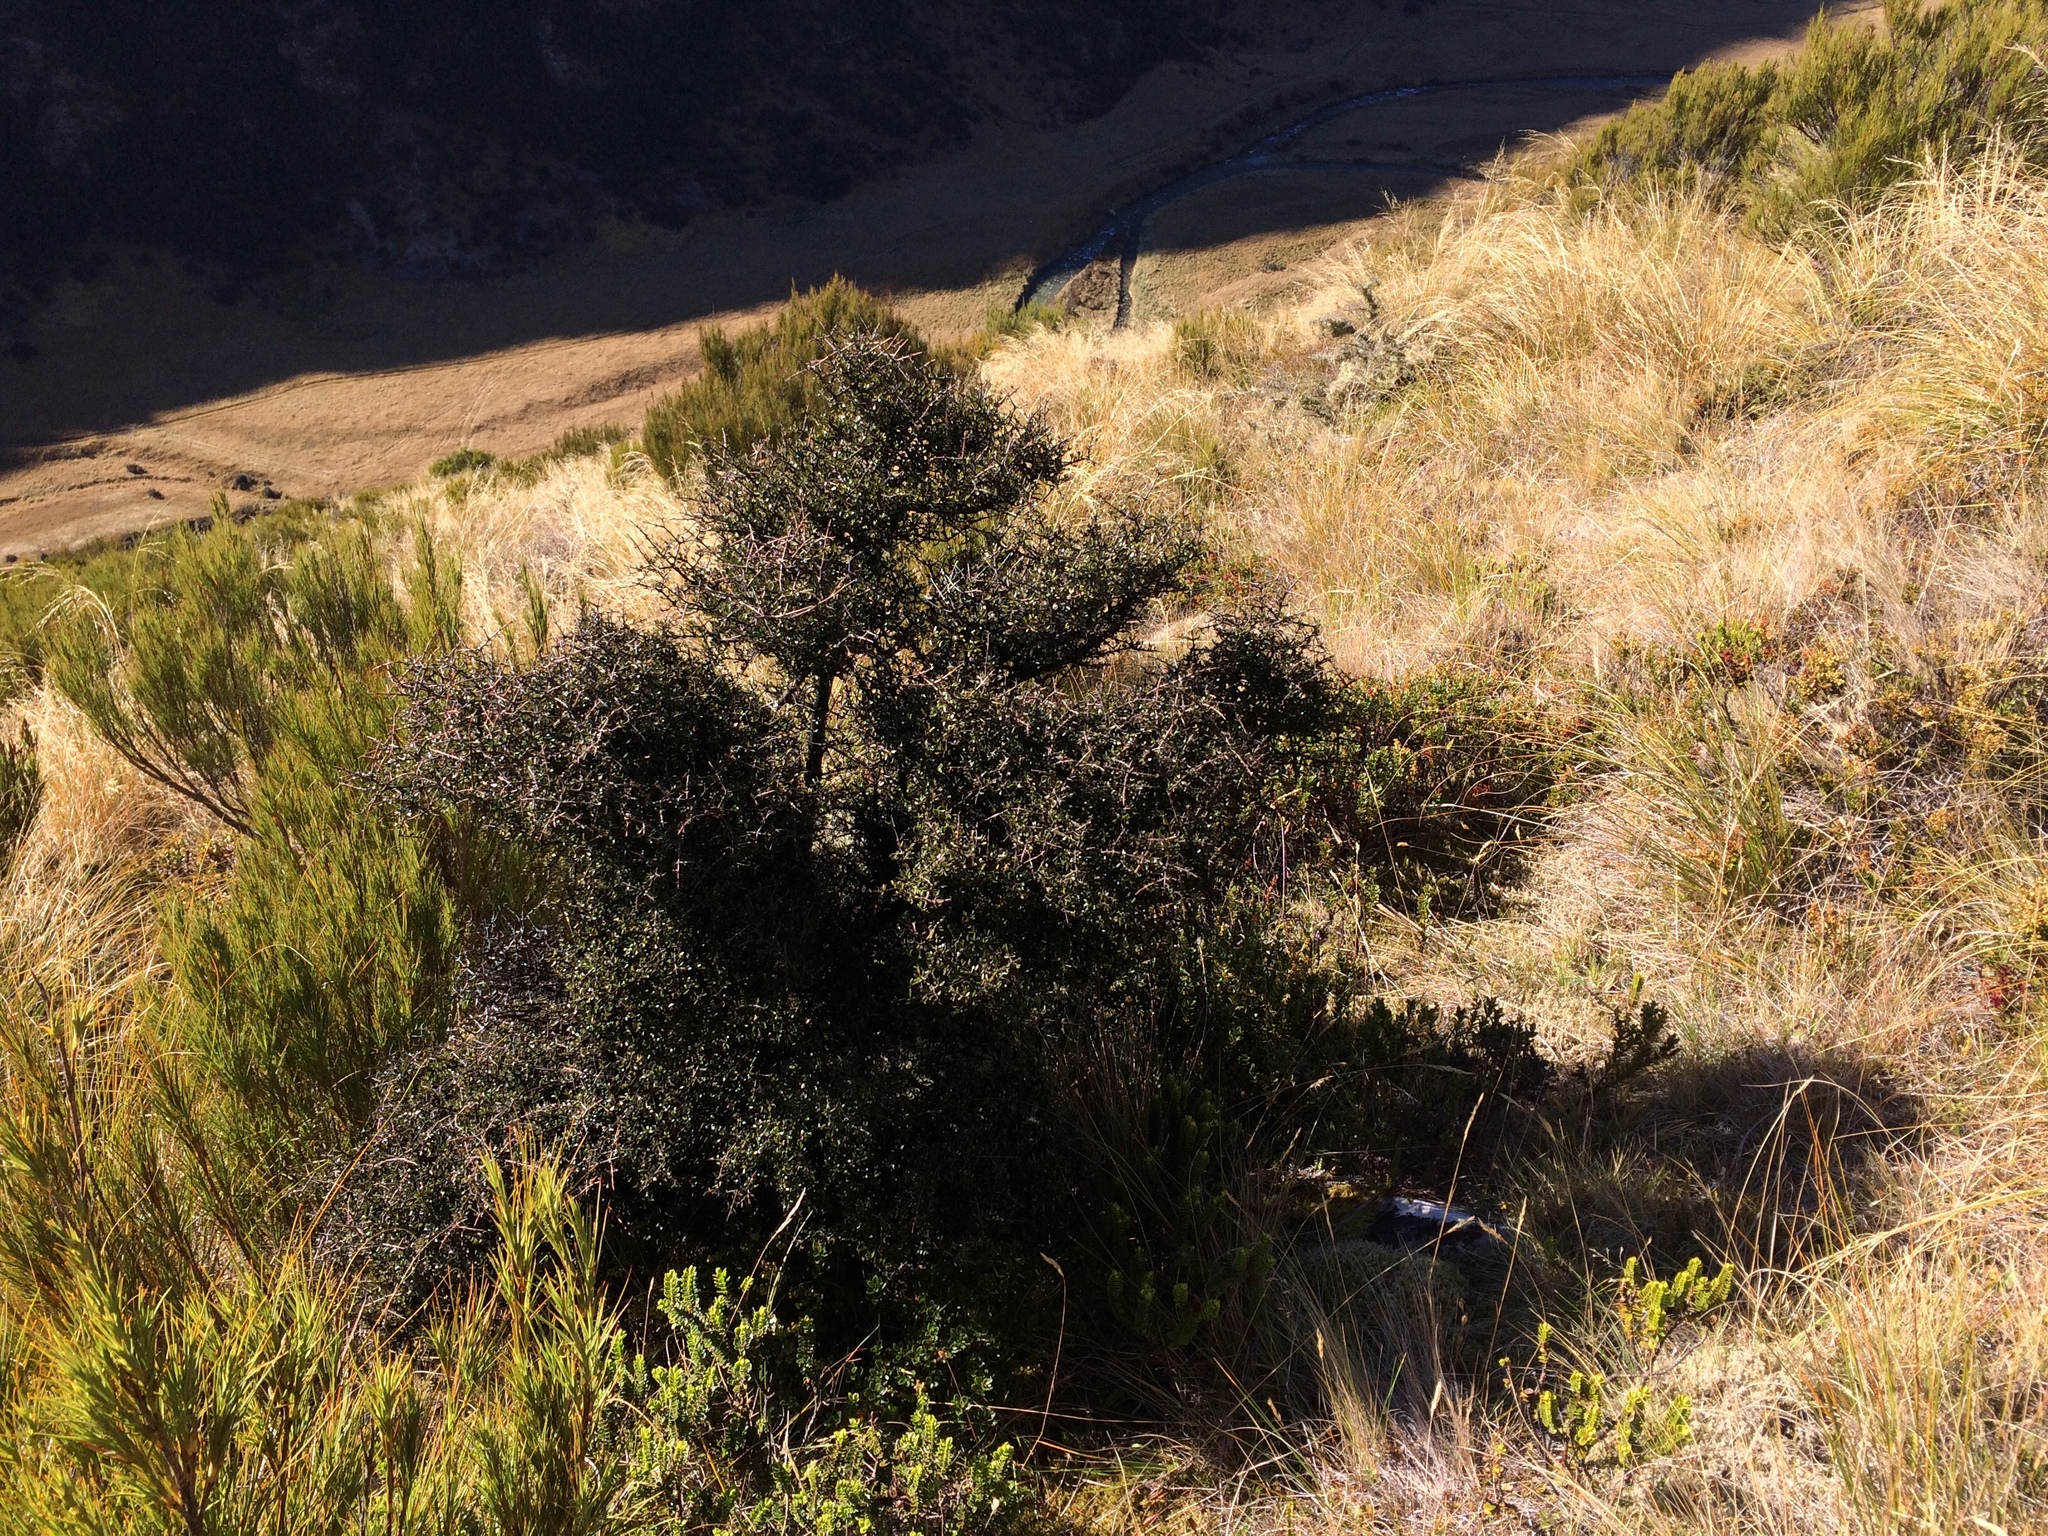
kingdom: Plantae
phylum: Tracheophyta
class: Magnoliopsida
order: Gentianales
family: Rubiaceae
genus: Coprosma
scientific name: Coprosma propinqua
